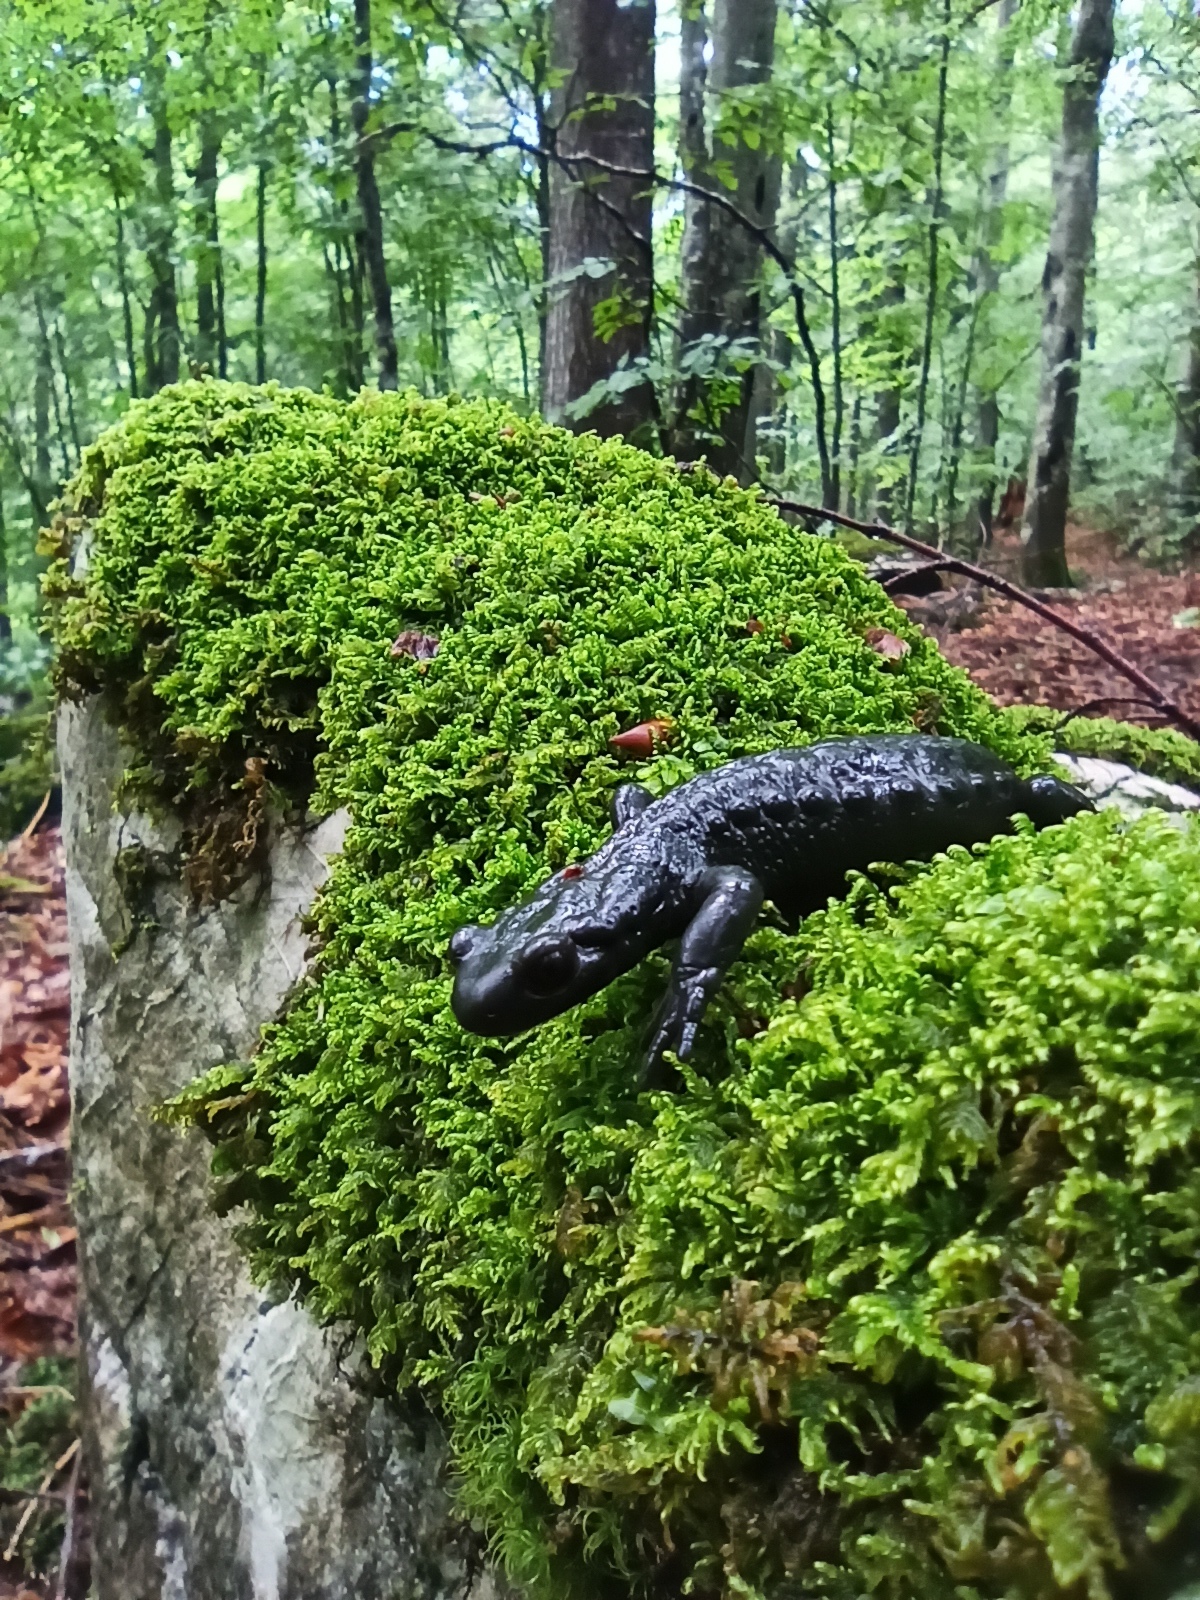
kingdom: Animalia
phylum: Chordata
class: Amphibia
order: Caudata
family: Salamandridae
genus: Salamandra
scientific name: Salamandra atra
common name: Alpine salamander
